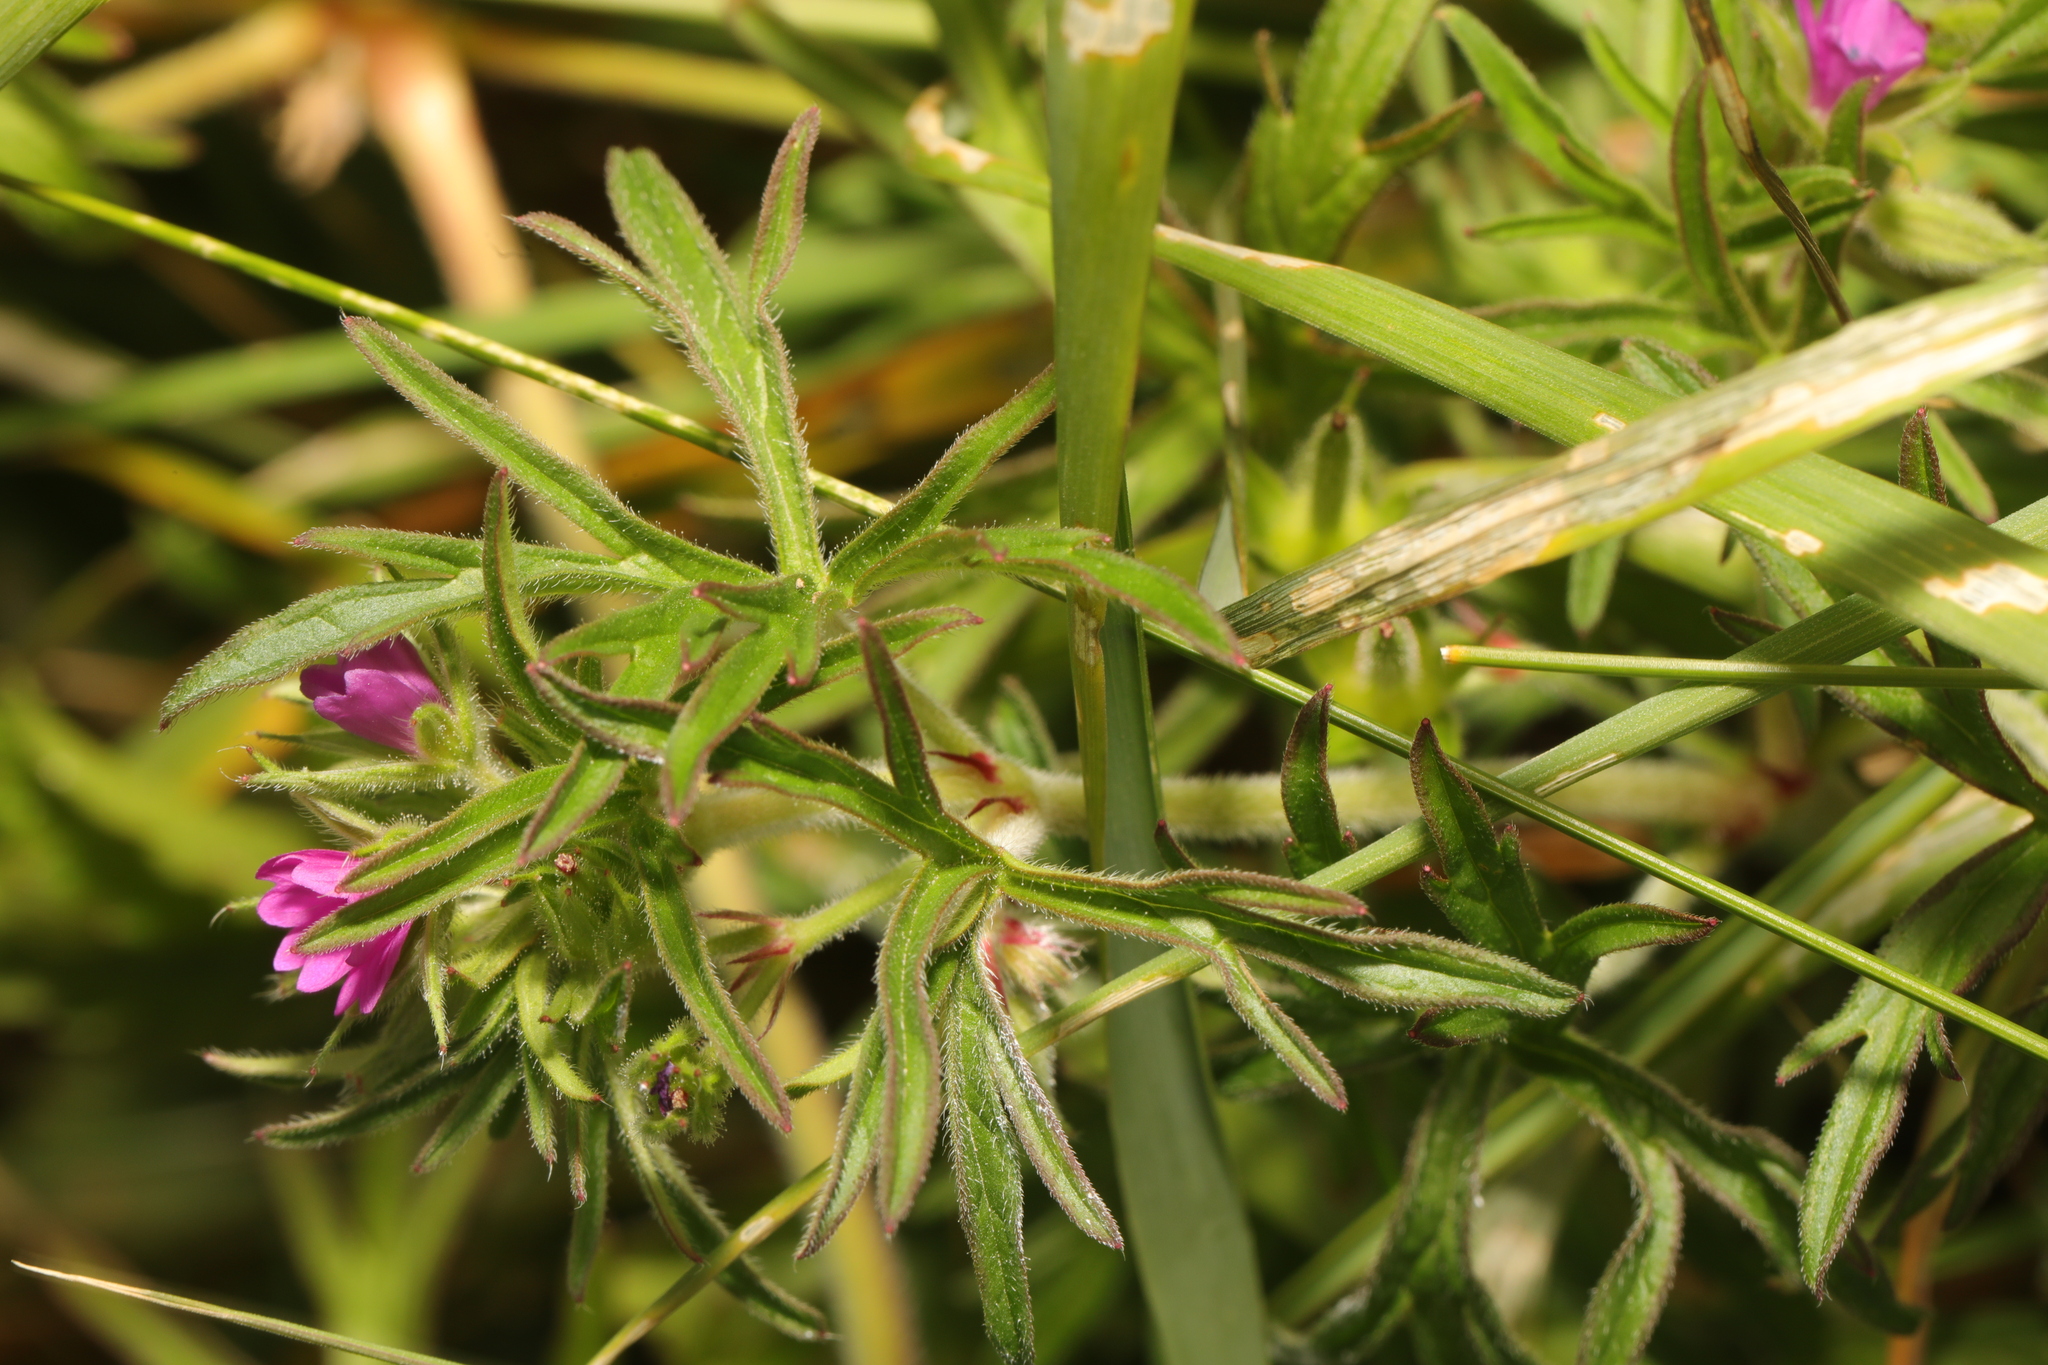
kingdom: Plantae
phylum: Tracheophyta
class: Magnoliopsida
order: Geraniales
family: Geraniaceae
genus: Geranium
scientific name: Geranium dissectum
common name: Cut-leaved crane's-bill
